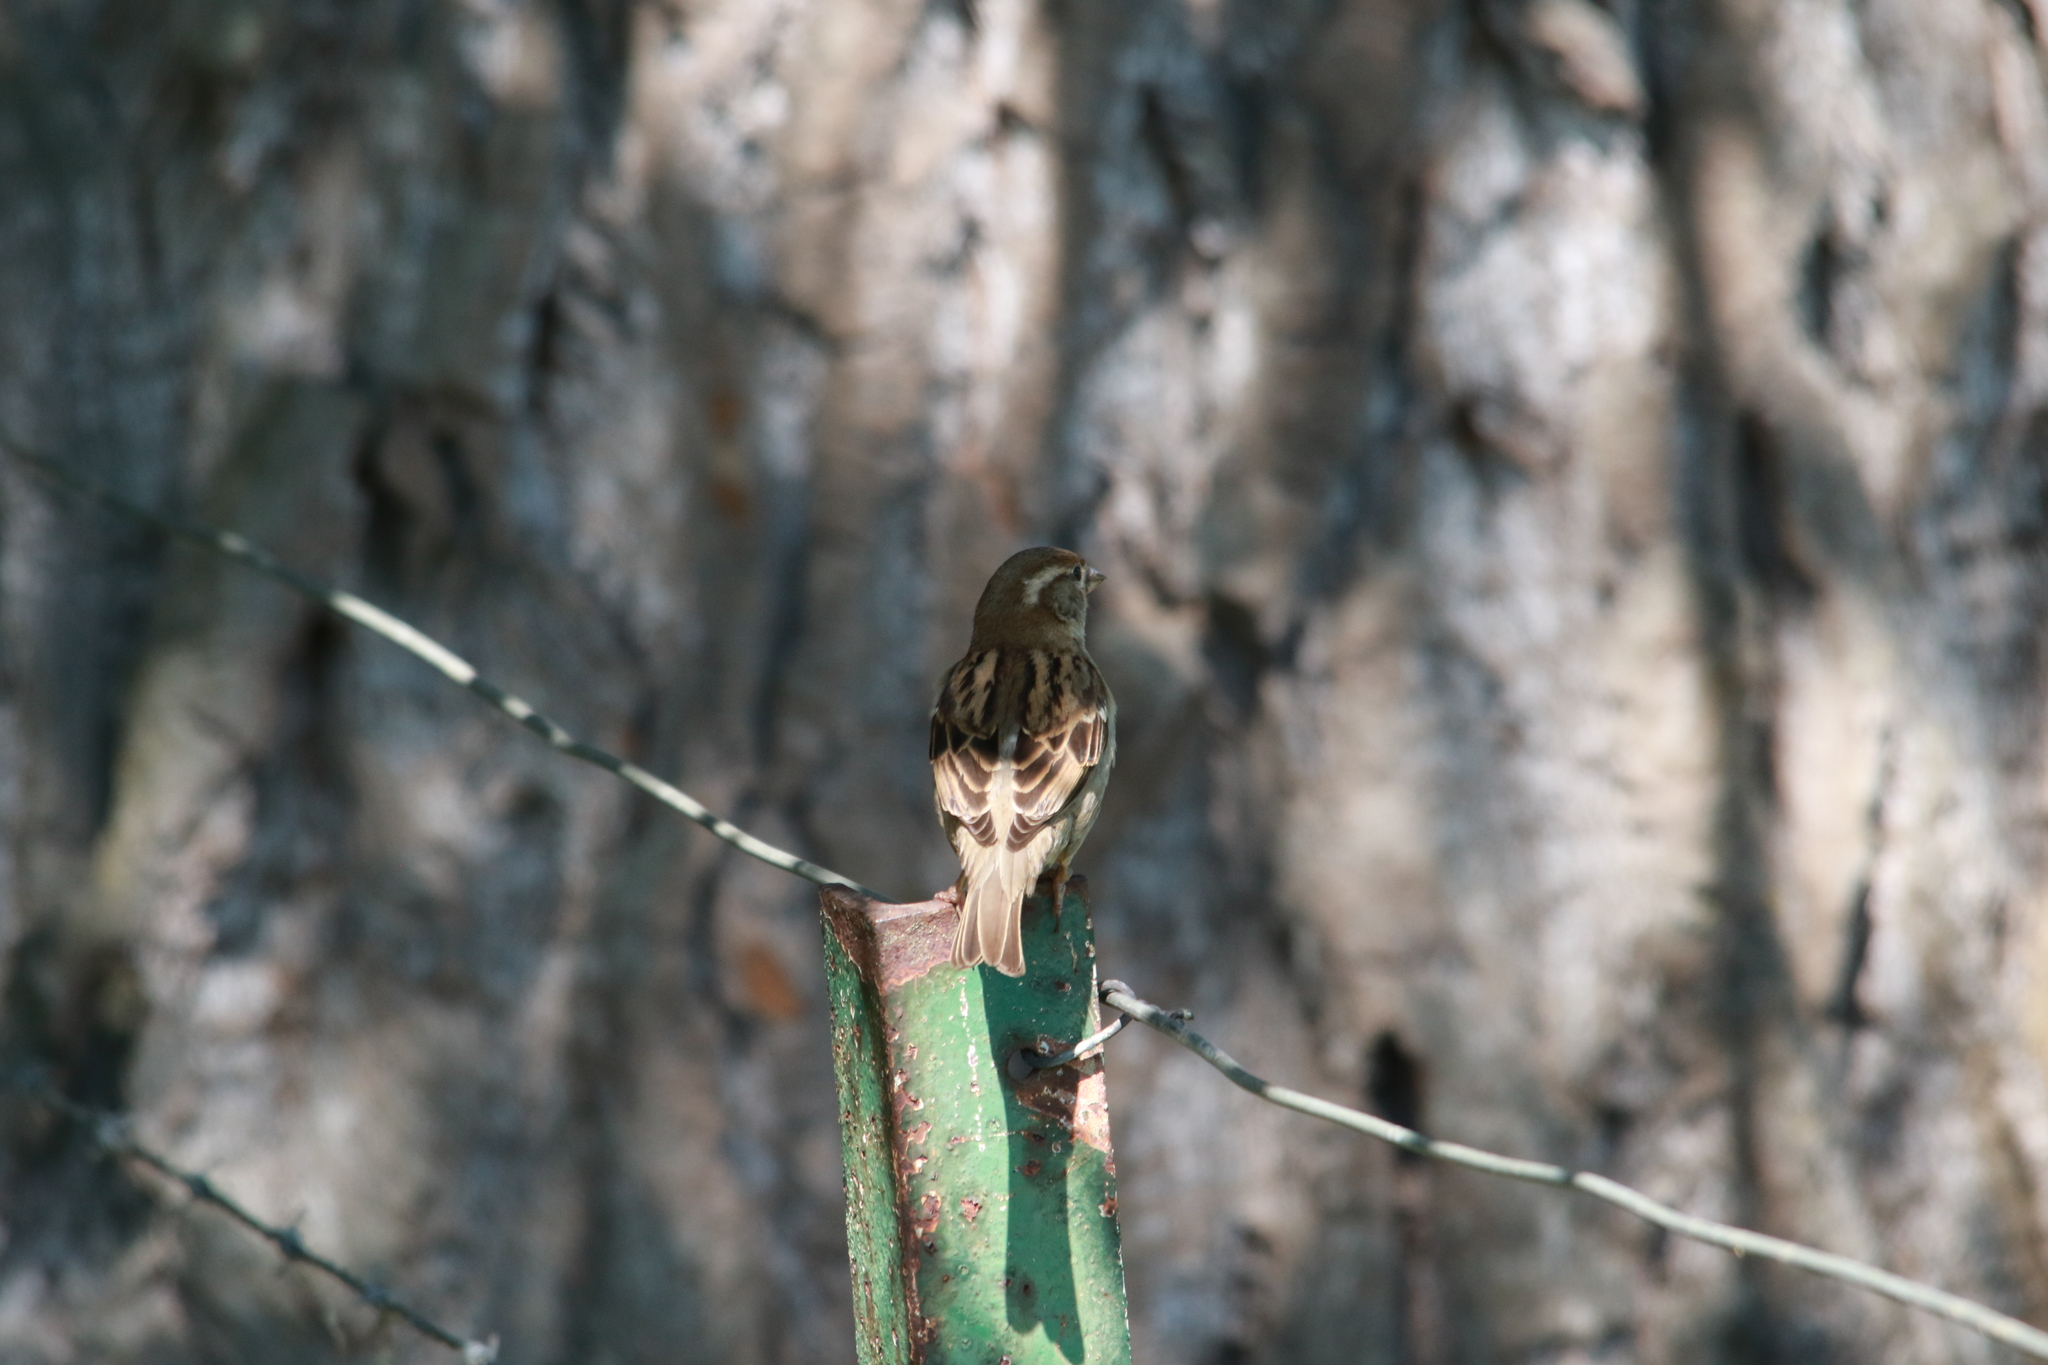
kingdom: Animalia
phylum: Chordata
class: Aves
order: Passeriformes
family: Passeridae
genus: Passer
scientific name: Passer domesticus
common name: House sparrow
